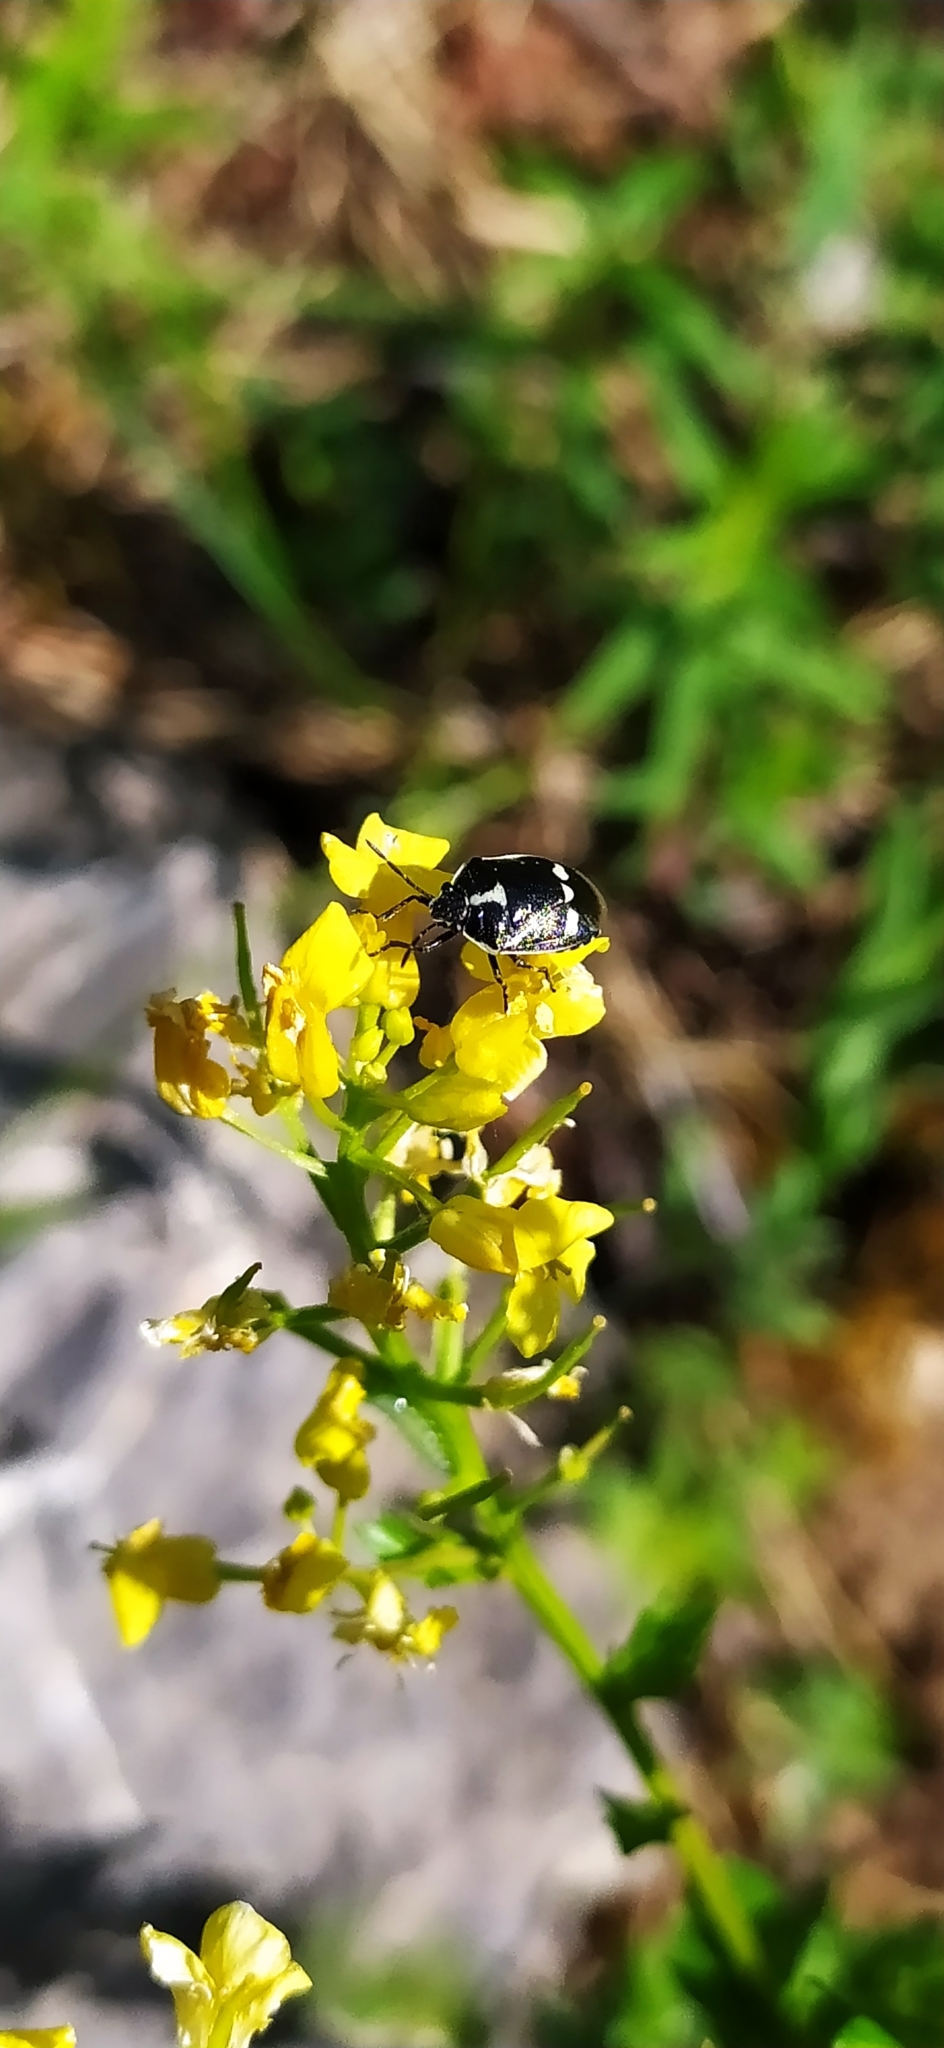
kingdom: Animalia
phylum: Arthropoda
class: Insecta
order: Hemiptera
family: Pentatomidae
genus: Eurydema
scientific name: Eurydema oleracea
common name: Cabbage bug
